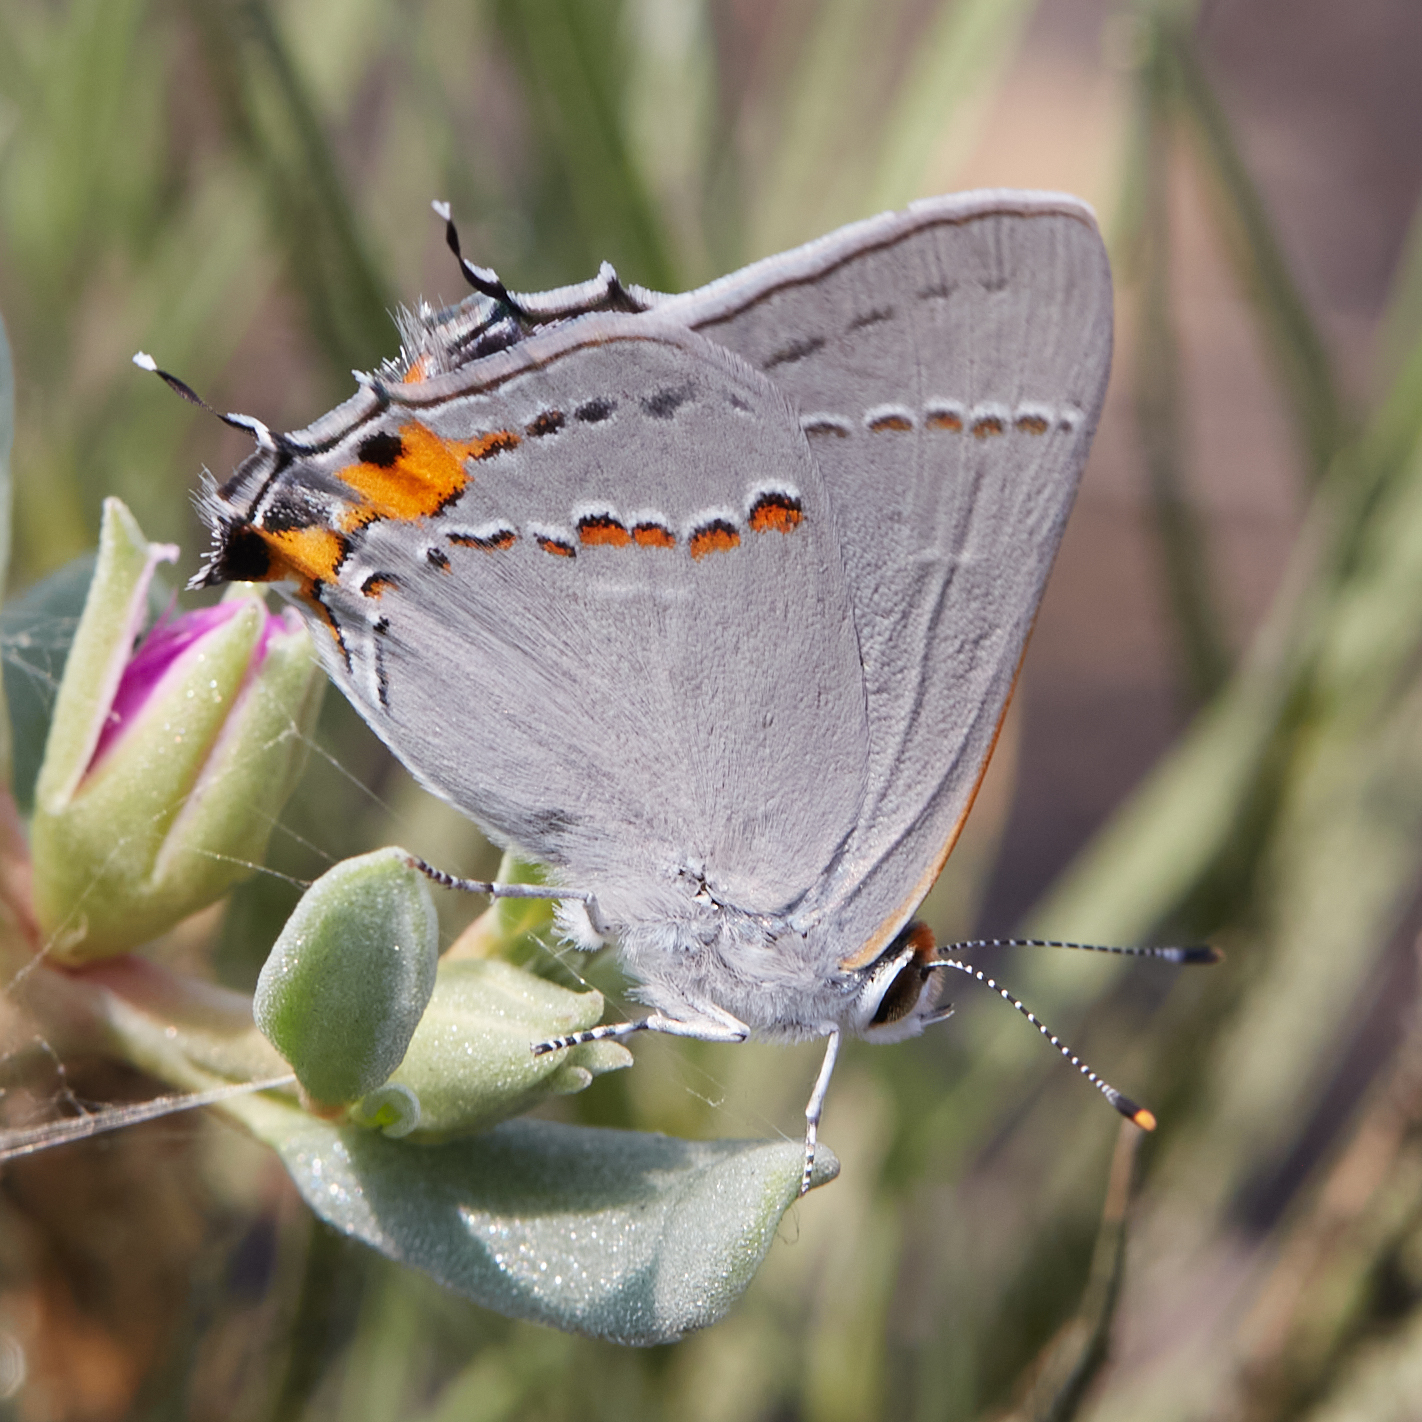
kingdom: Animalia
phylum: Arthropoda
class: Insecta
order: Lepidoptera
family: Lycaenidae
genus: Strymon
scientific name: Strymon melinus
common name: Gray hairstreak
